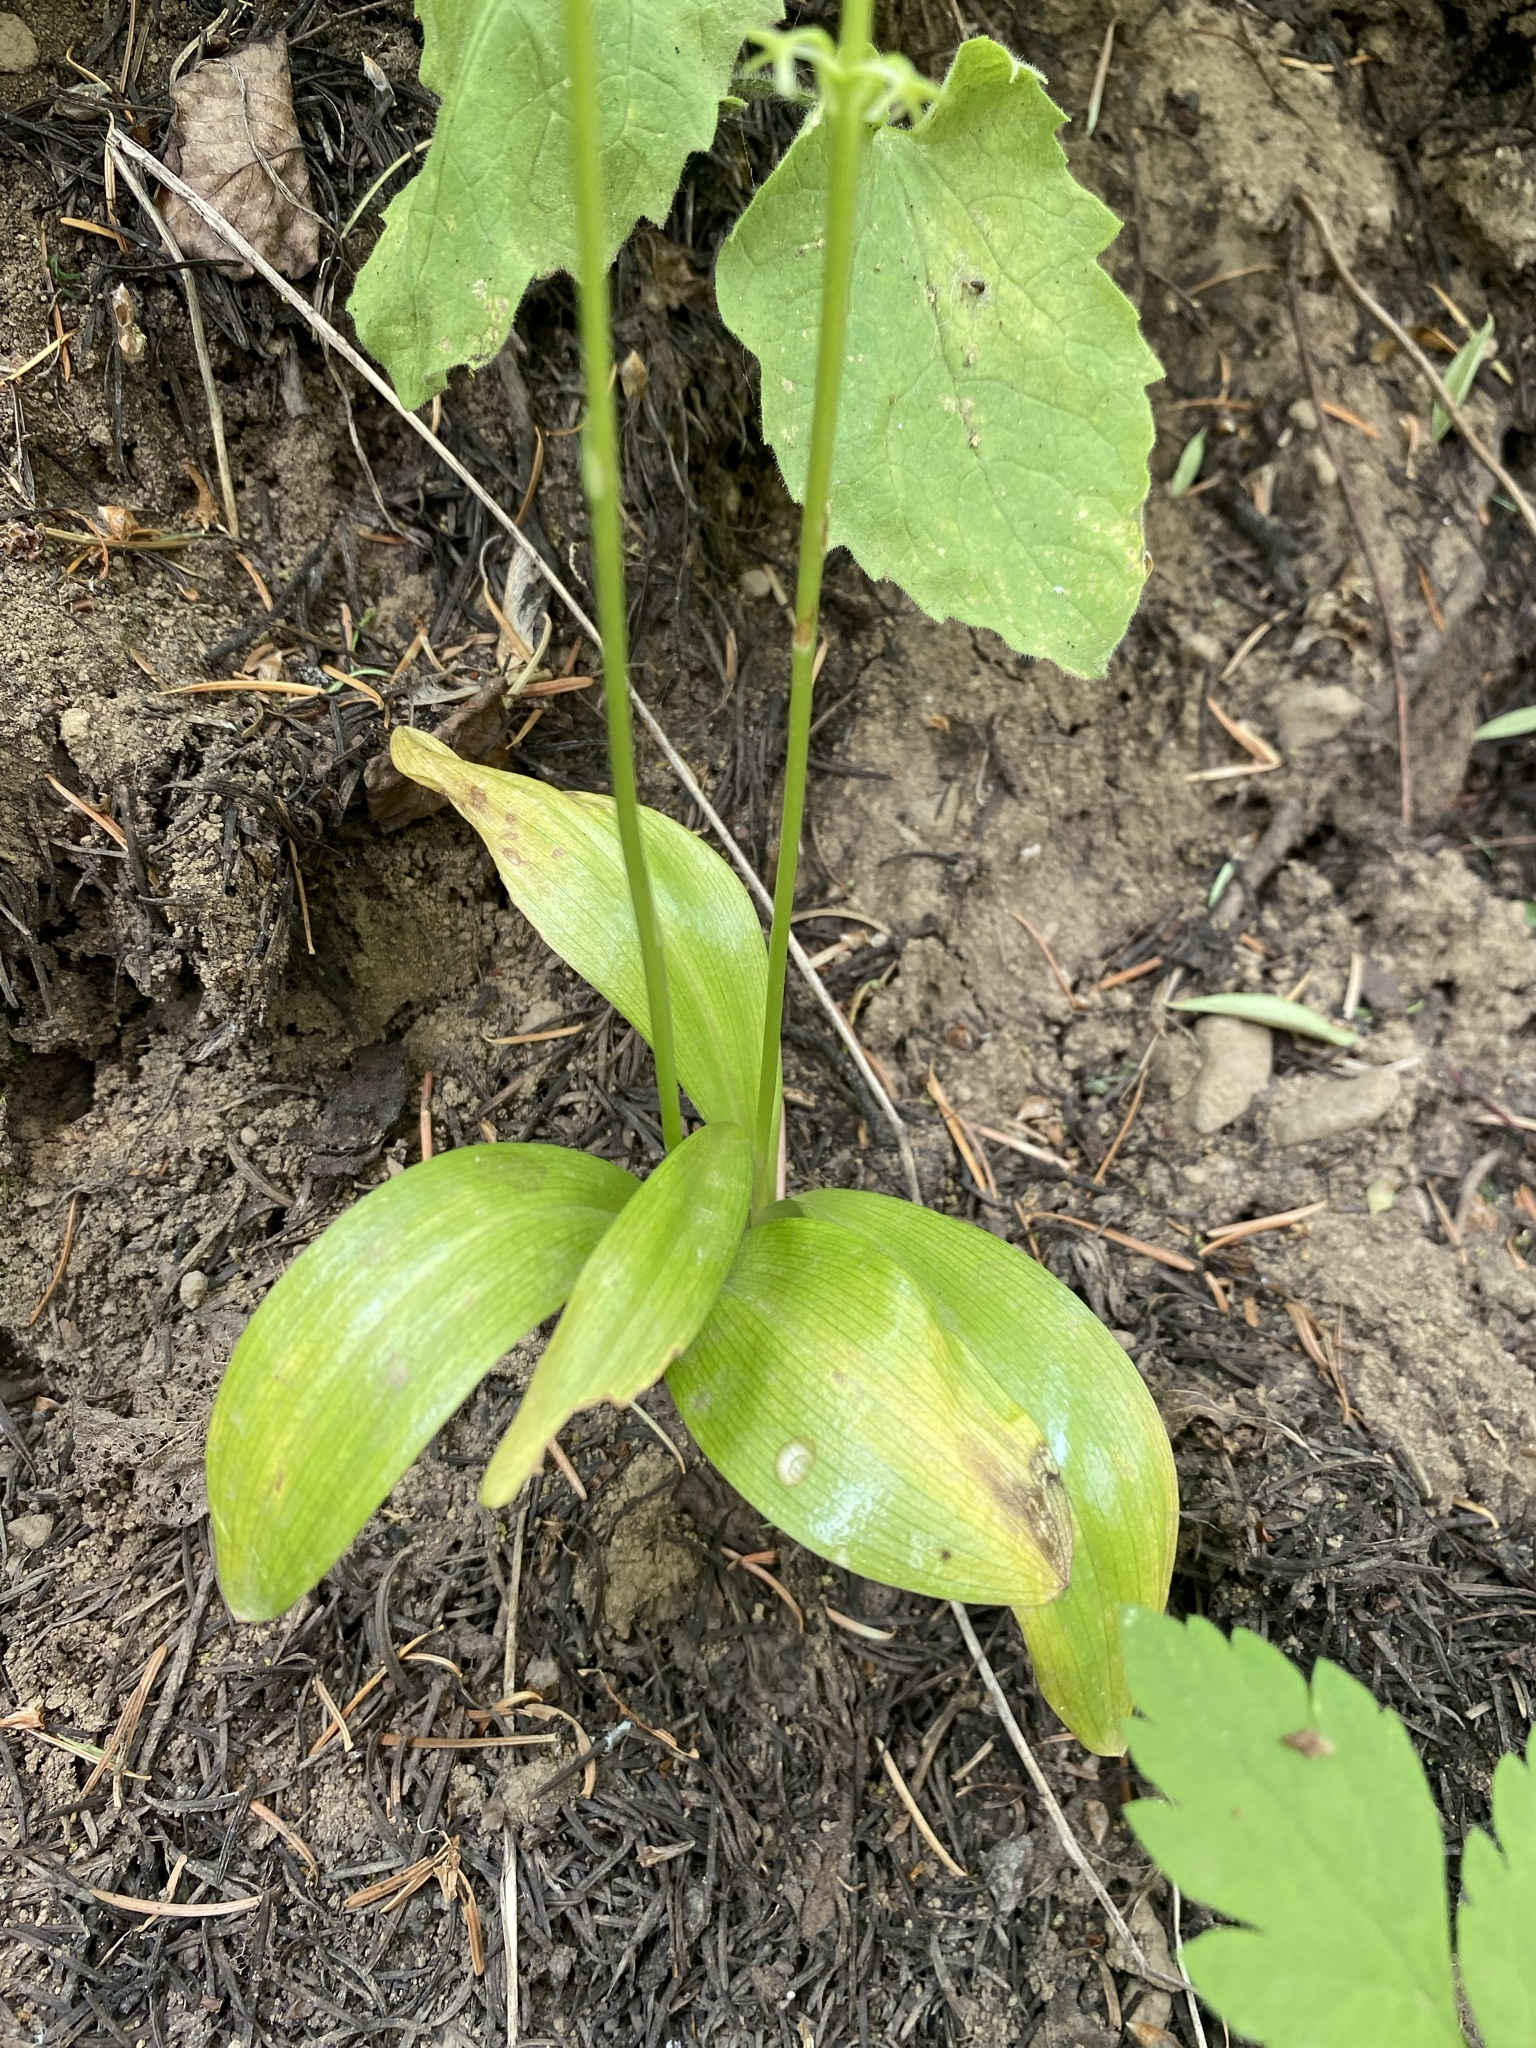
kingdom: Plantae
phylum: Tracheophyta
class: Liliopsida
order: Asparagales
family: Orchidaceae
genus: Platanthera
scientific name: Platanthera unalascensis
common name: Alaska bog orchid
